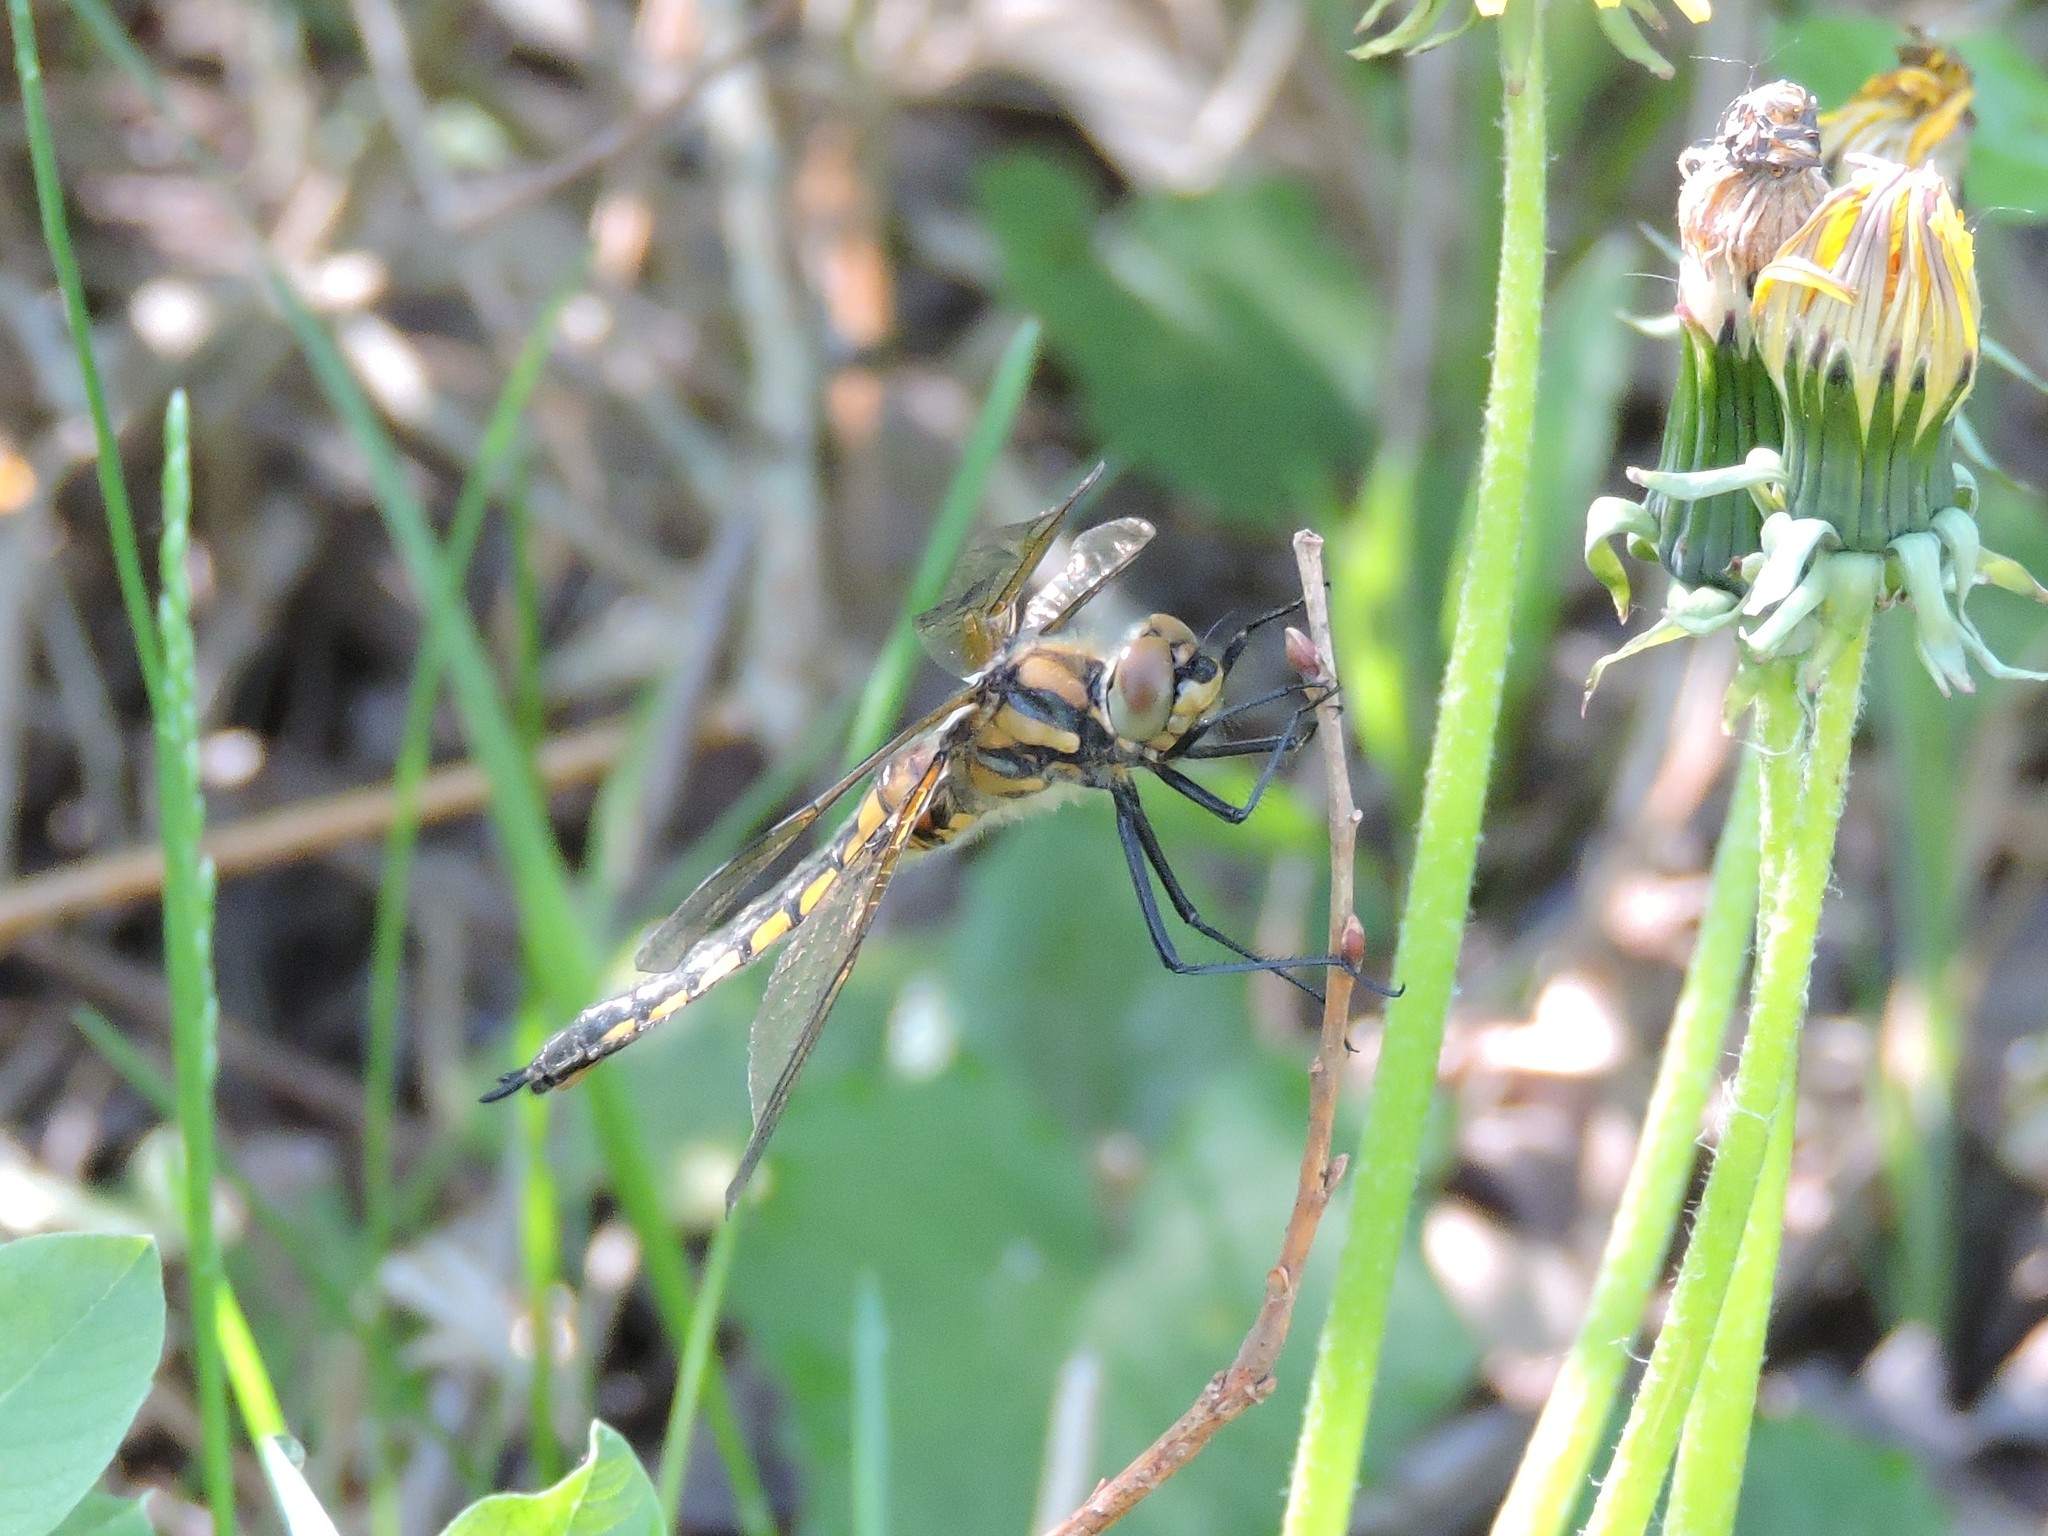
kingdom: Animalia
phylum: Arthropoda
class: Insecta
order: Odonata
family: Corduliidae
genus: Epitheca
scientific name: Epitheca bimaculata
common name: Eurasian baskettail
